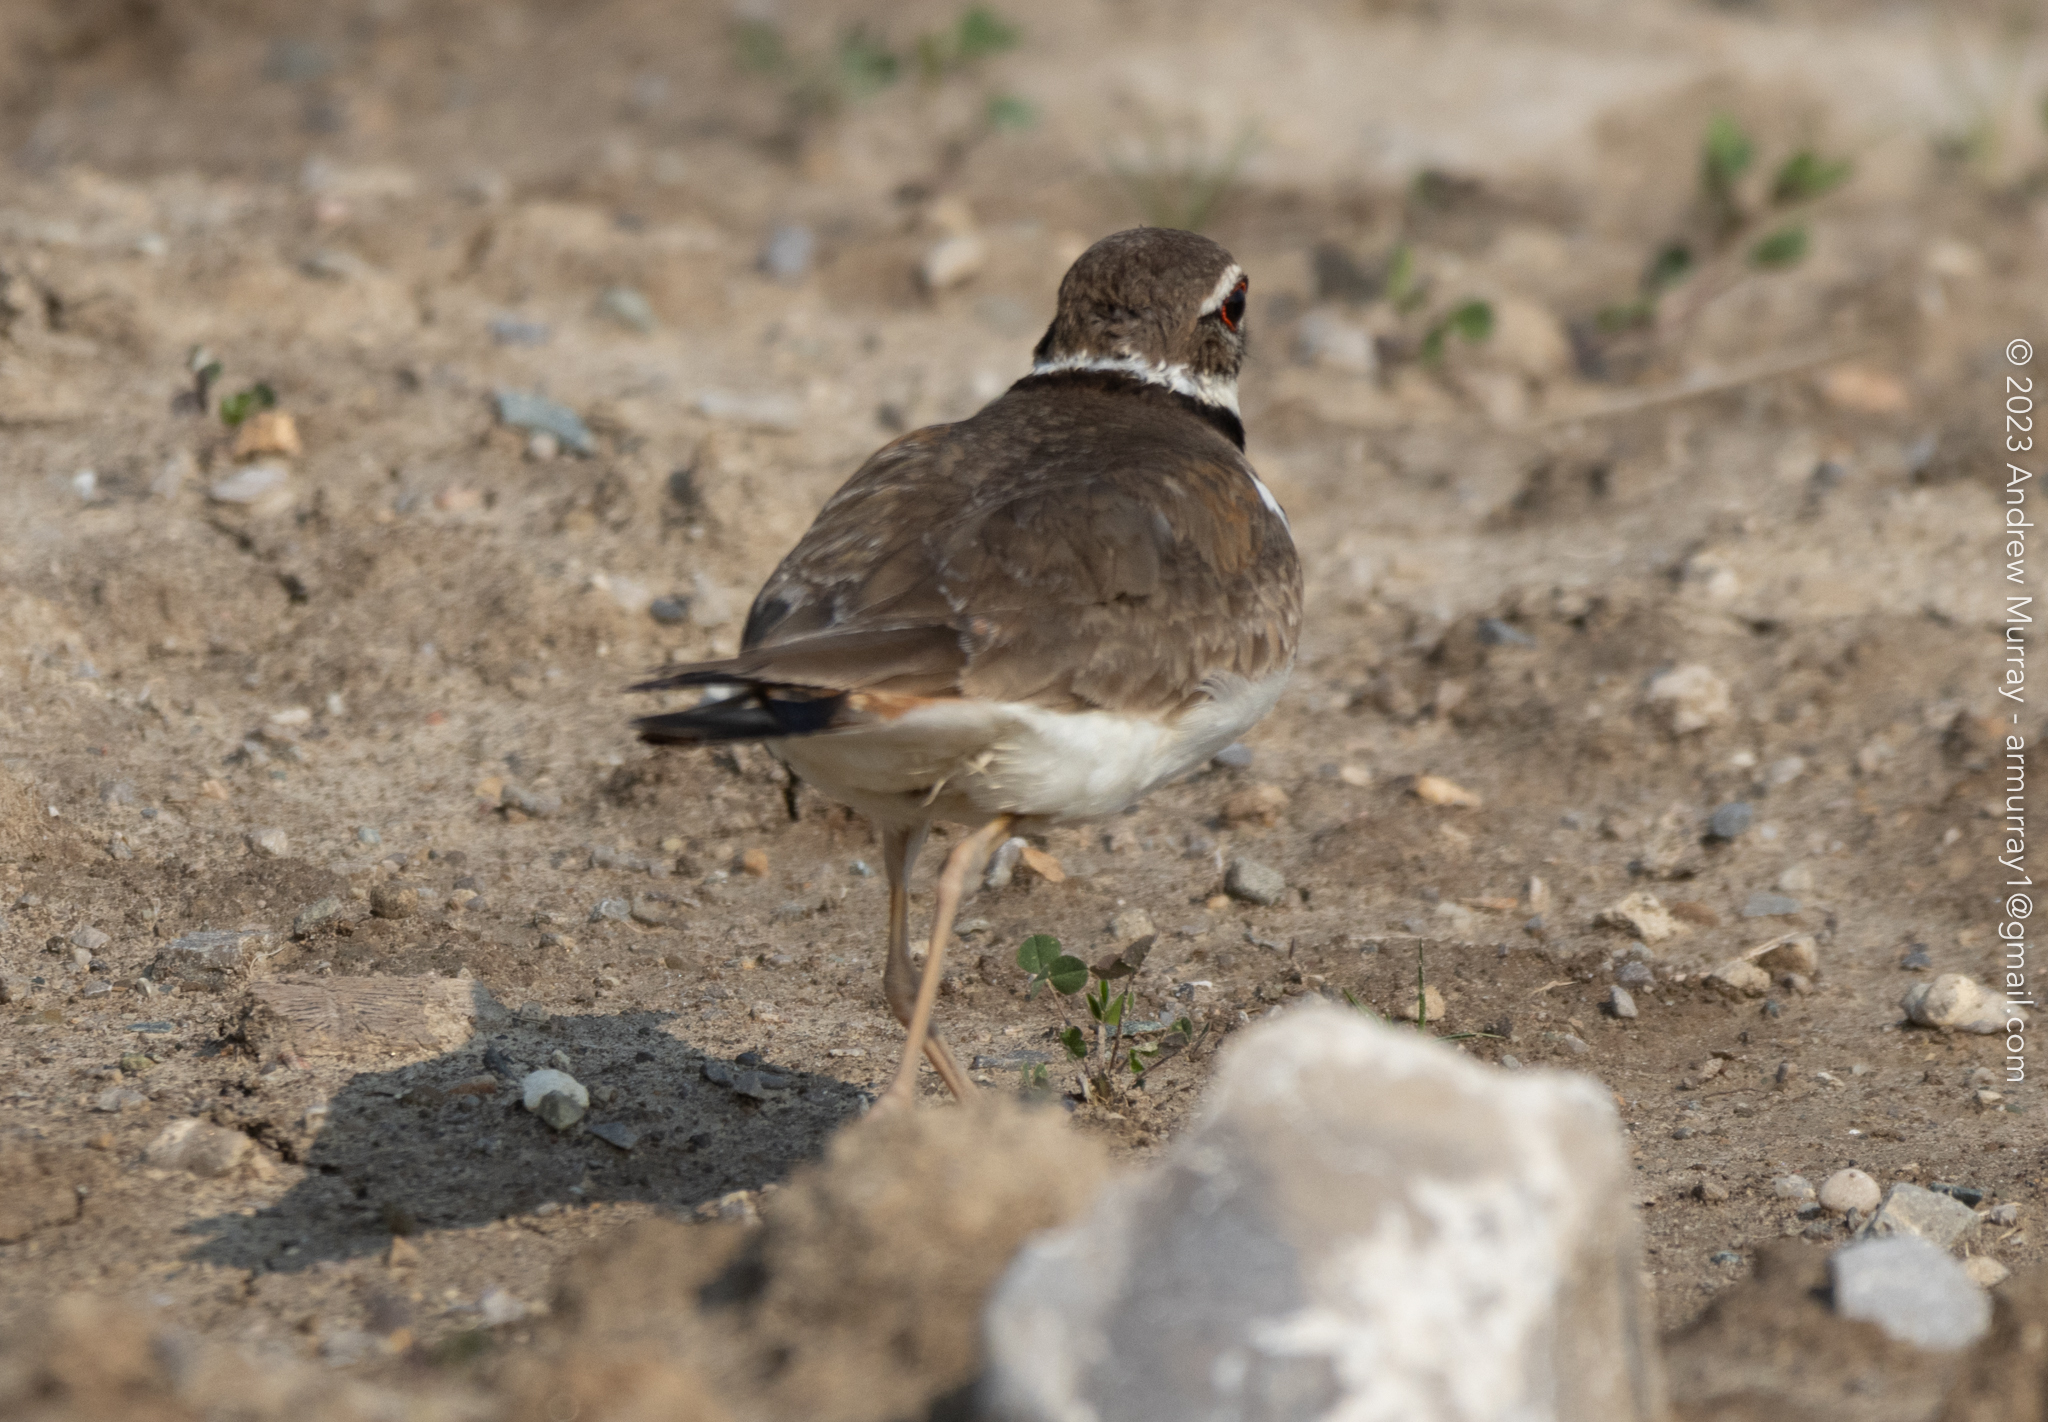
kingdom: Animalia
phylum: Chordata
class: Aves
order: Charadriiformes
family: Charadriidae
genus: Charadrius
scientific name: Charadrius vociferus
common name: Killdeer
